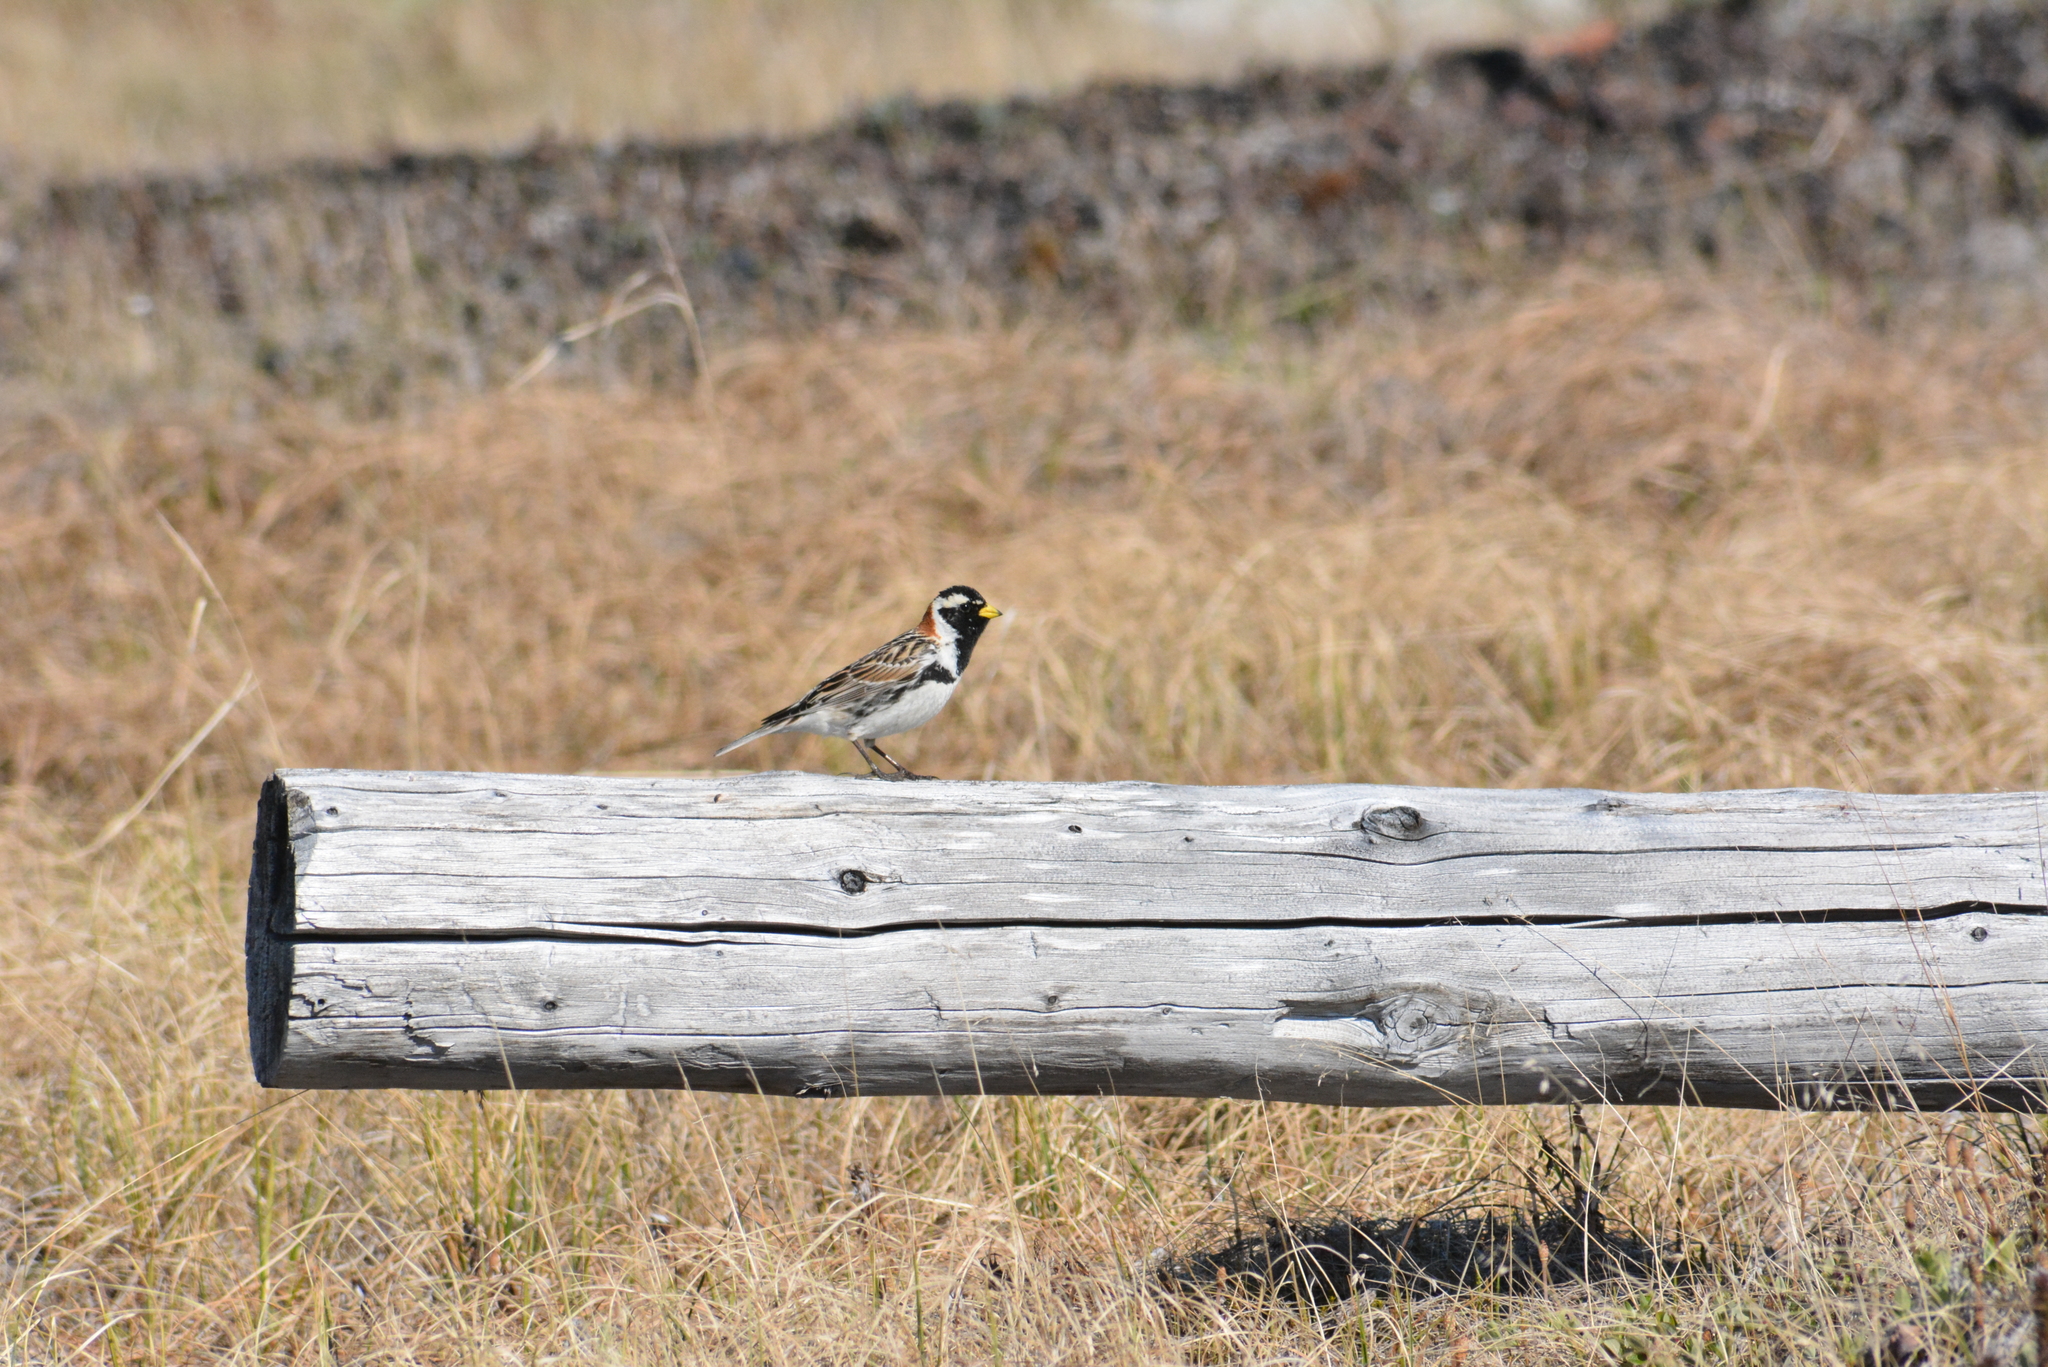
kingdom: Animalia
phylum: Chordata
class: Aves
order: Passeriformes
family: Calcariidae
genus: Calcarius
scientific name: Calcarius lapponicus
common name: Lapland longspur
